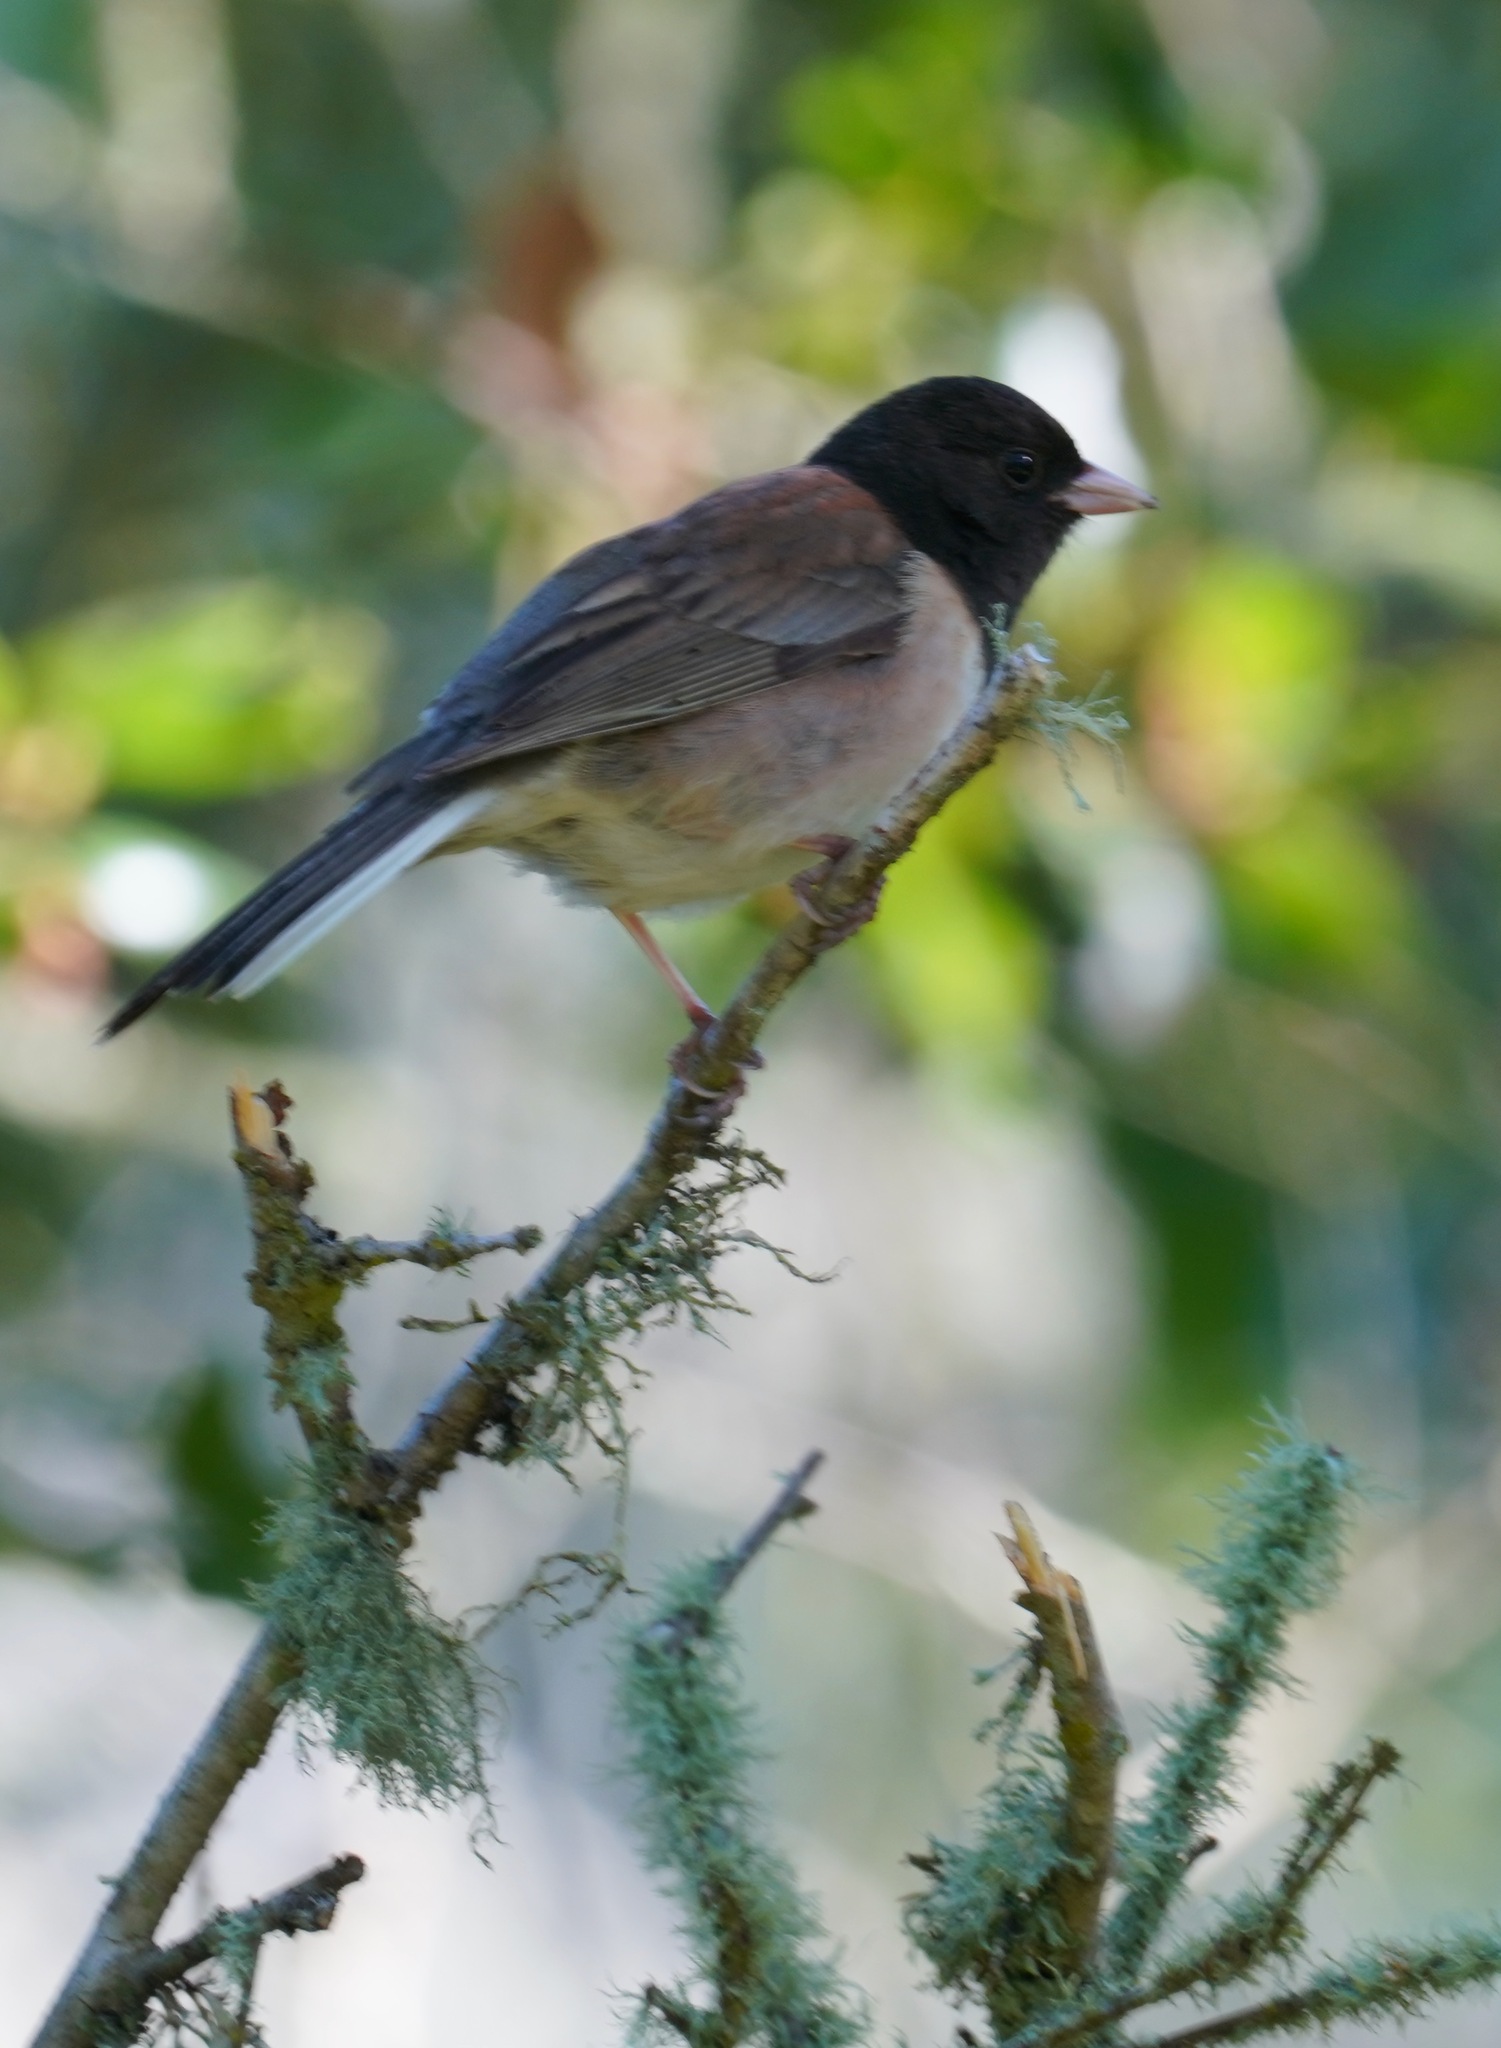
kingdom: Animalia
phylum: Chordata
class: Aves
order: Passeriformes
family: Passerellidae
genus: Junco
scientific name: Junco hyemalis
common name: Dark-eyed junco
